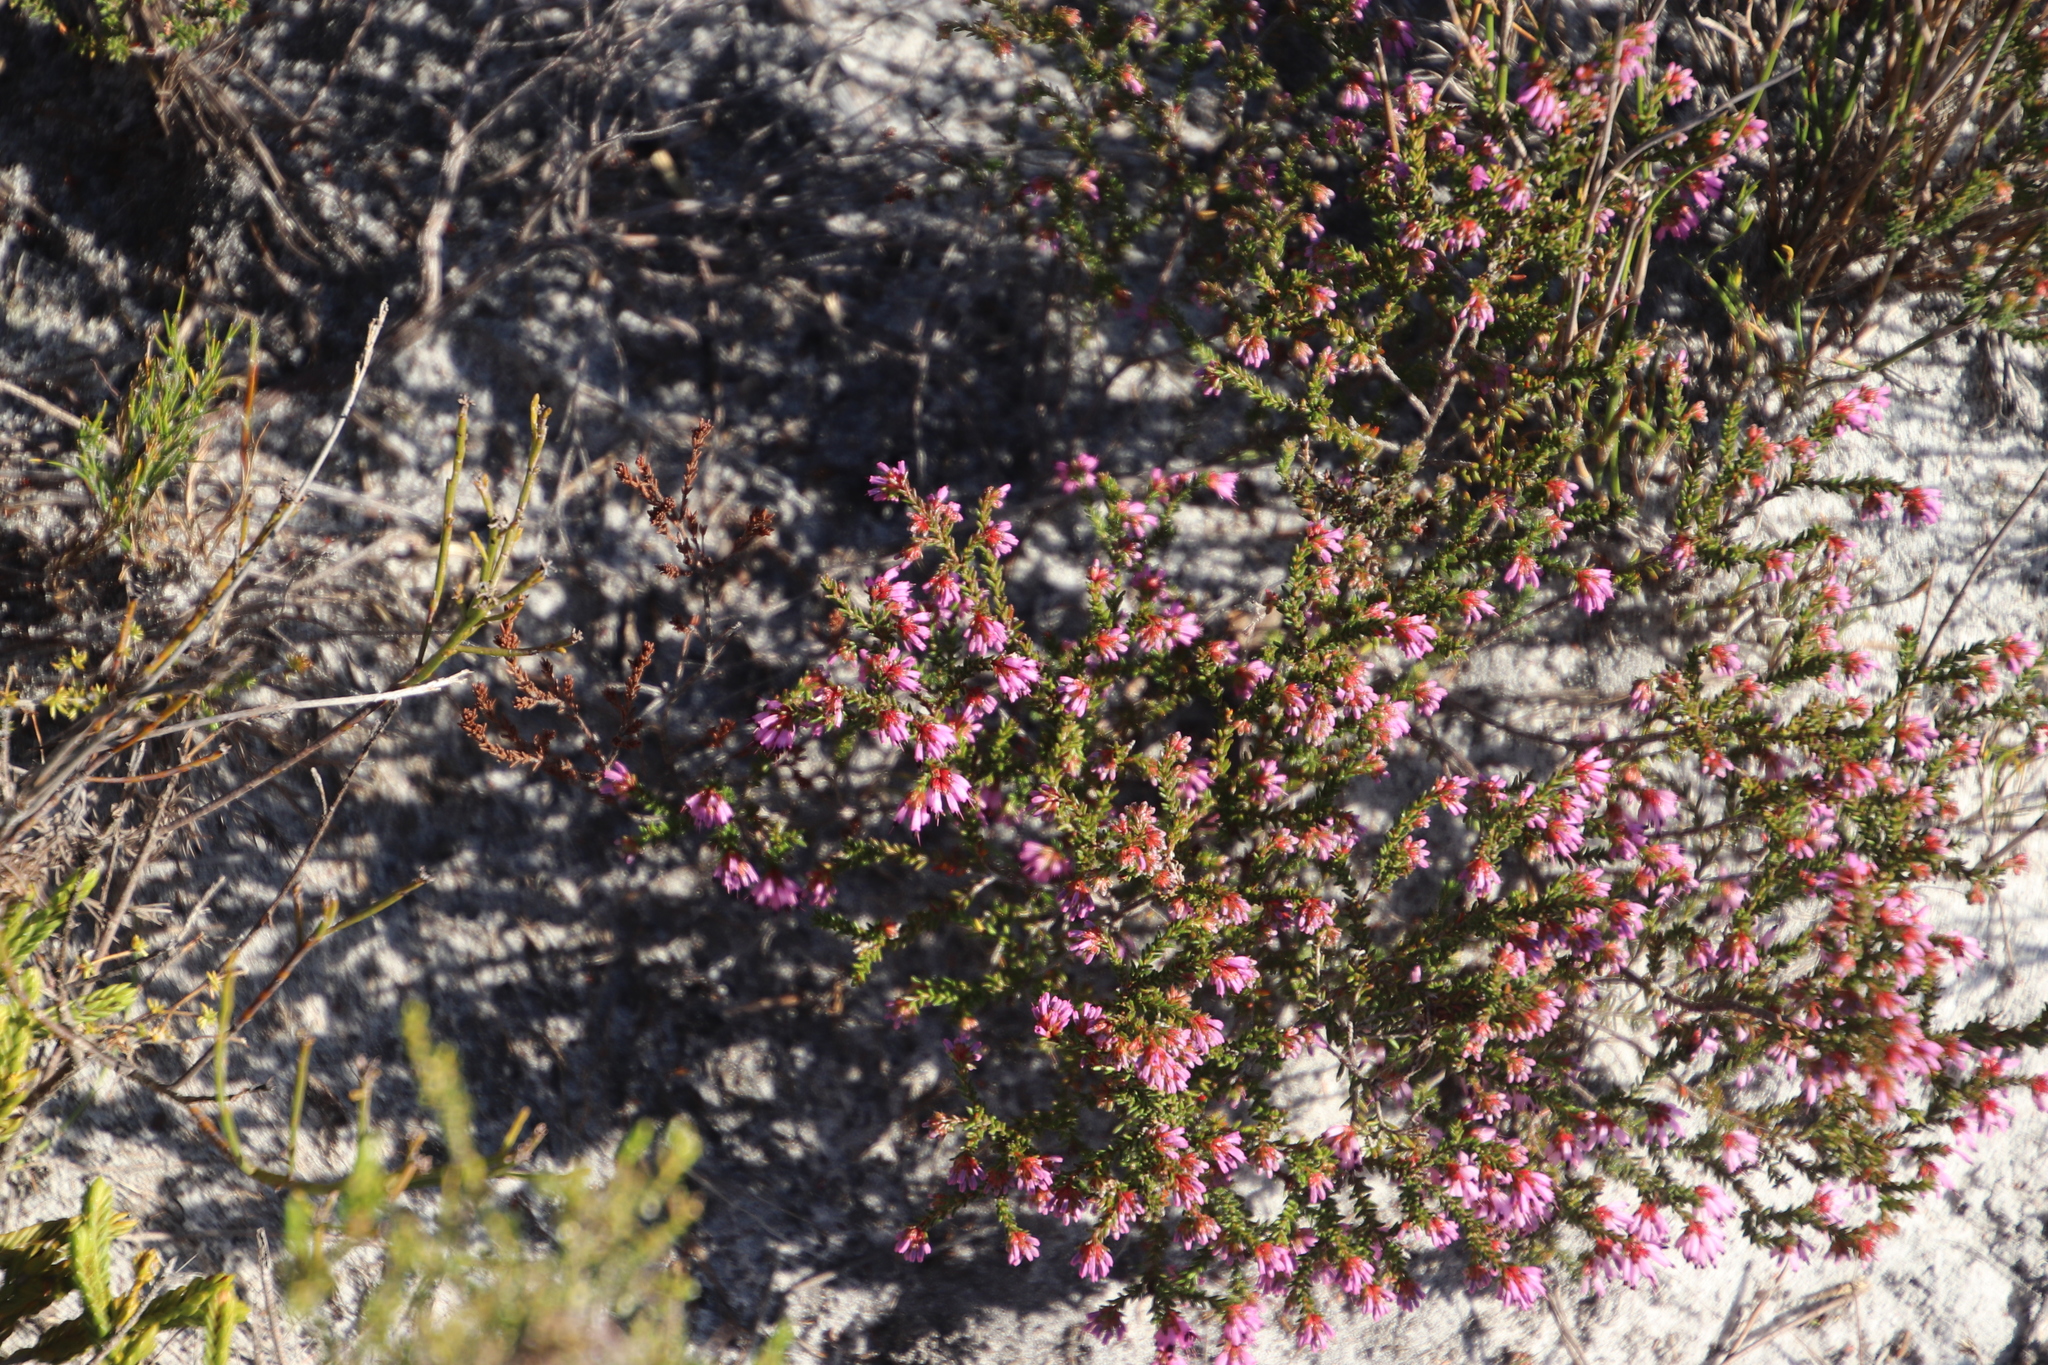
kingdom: Plantae
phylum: Tracheophyta
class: Magnoliopsida
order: Ericales
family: Ericaceae
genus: Erica
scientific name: Erica glabella
